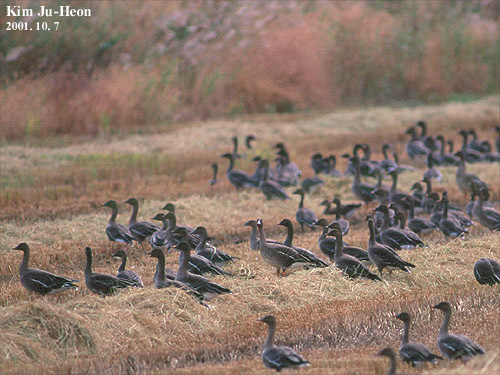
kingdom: Animalia
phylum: Chordata
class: Aves
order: Anseriformes
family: Anatidae
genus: Anser
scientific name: Anser fabalis
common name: Bean goose
